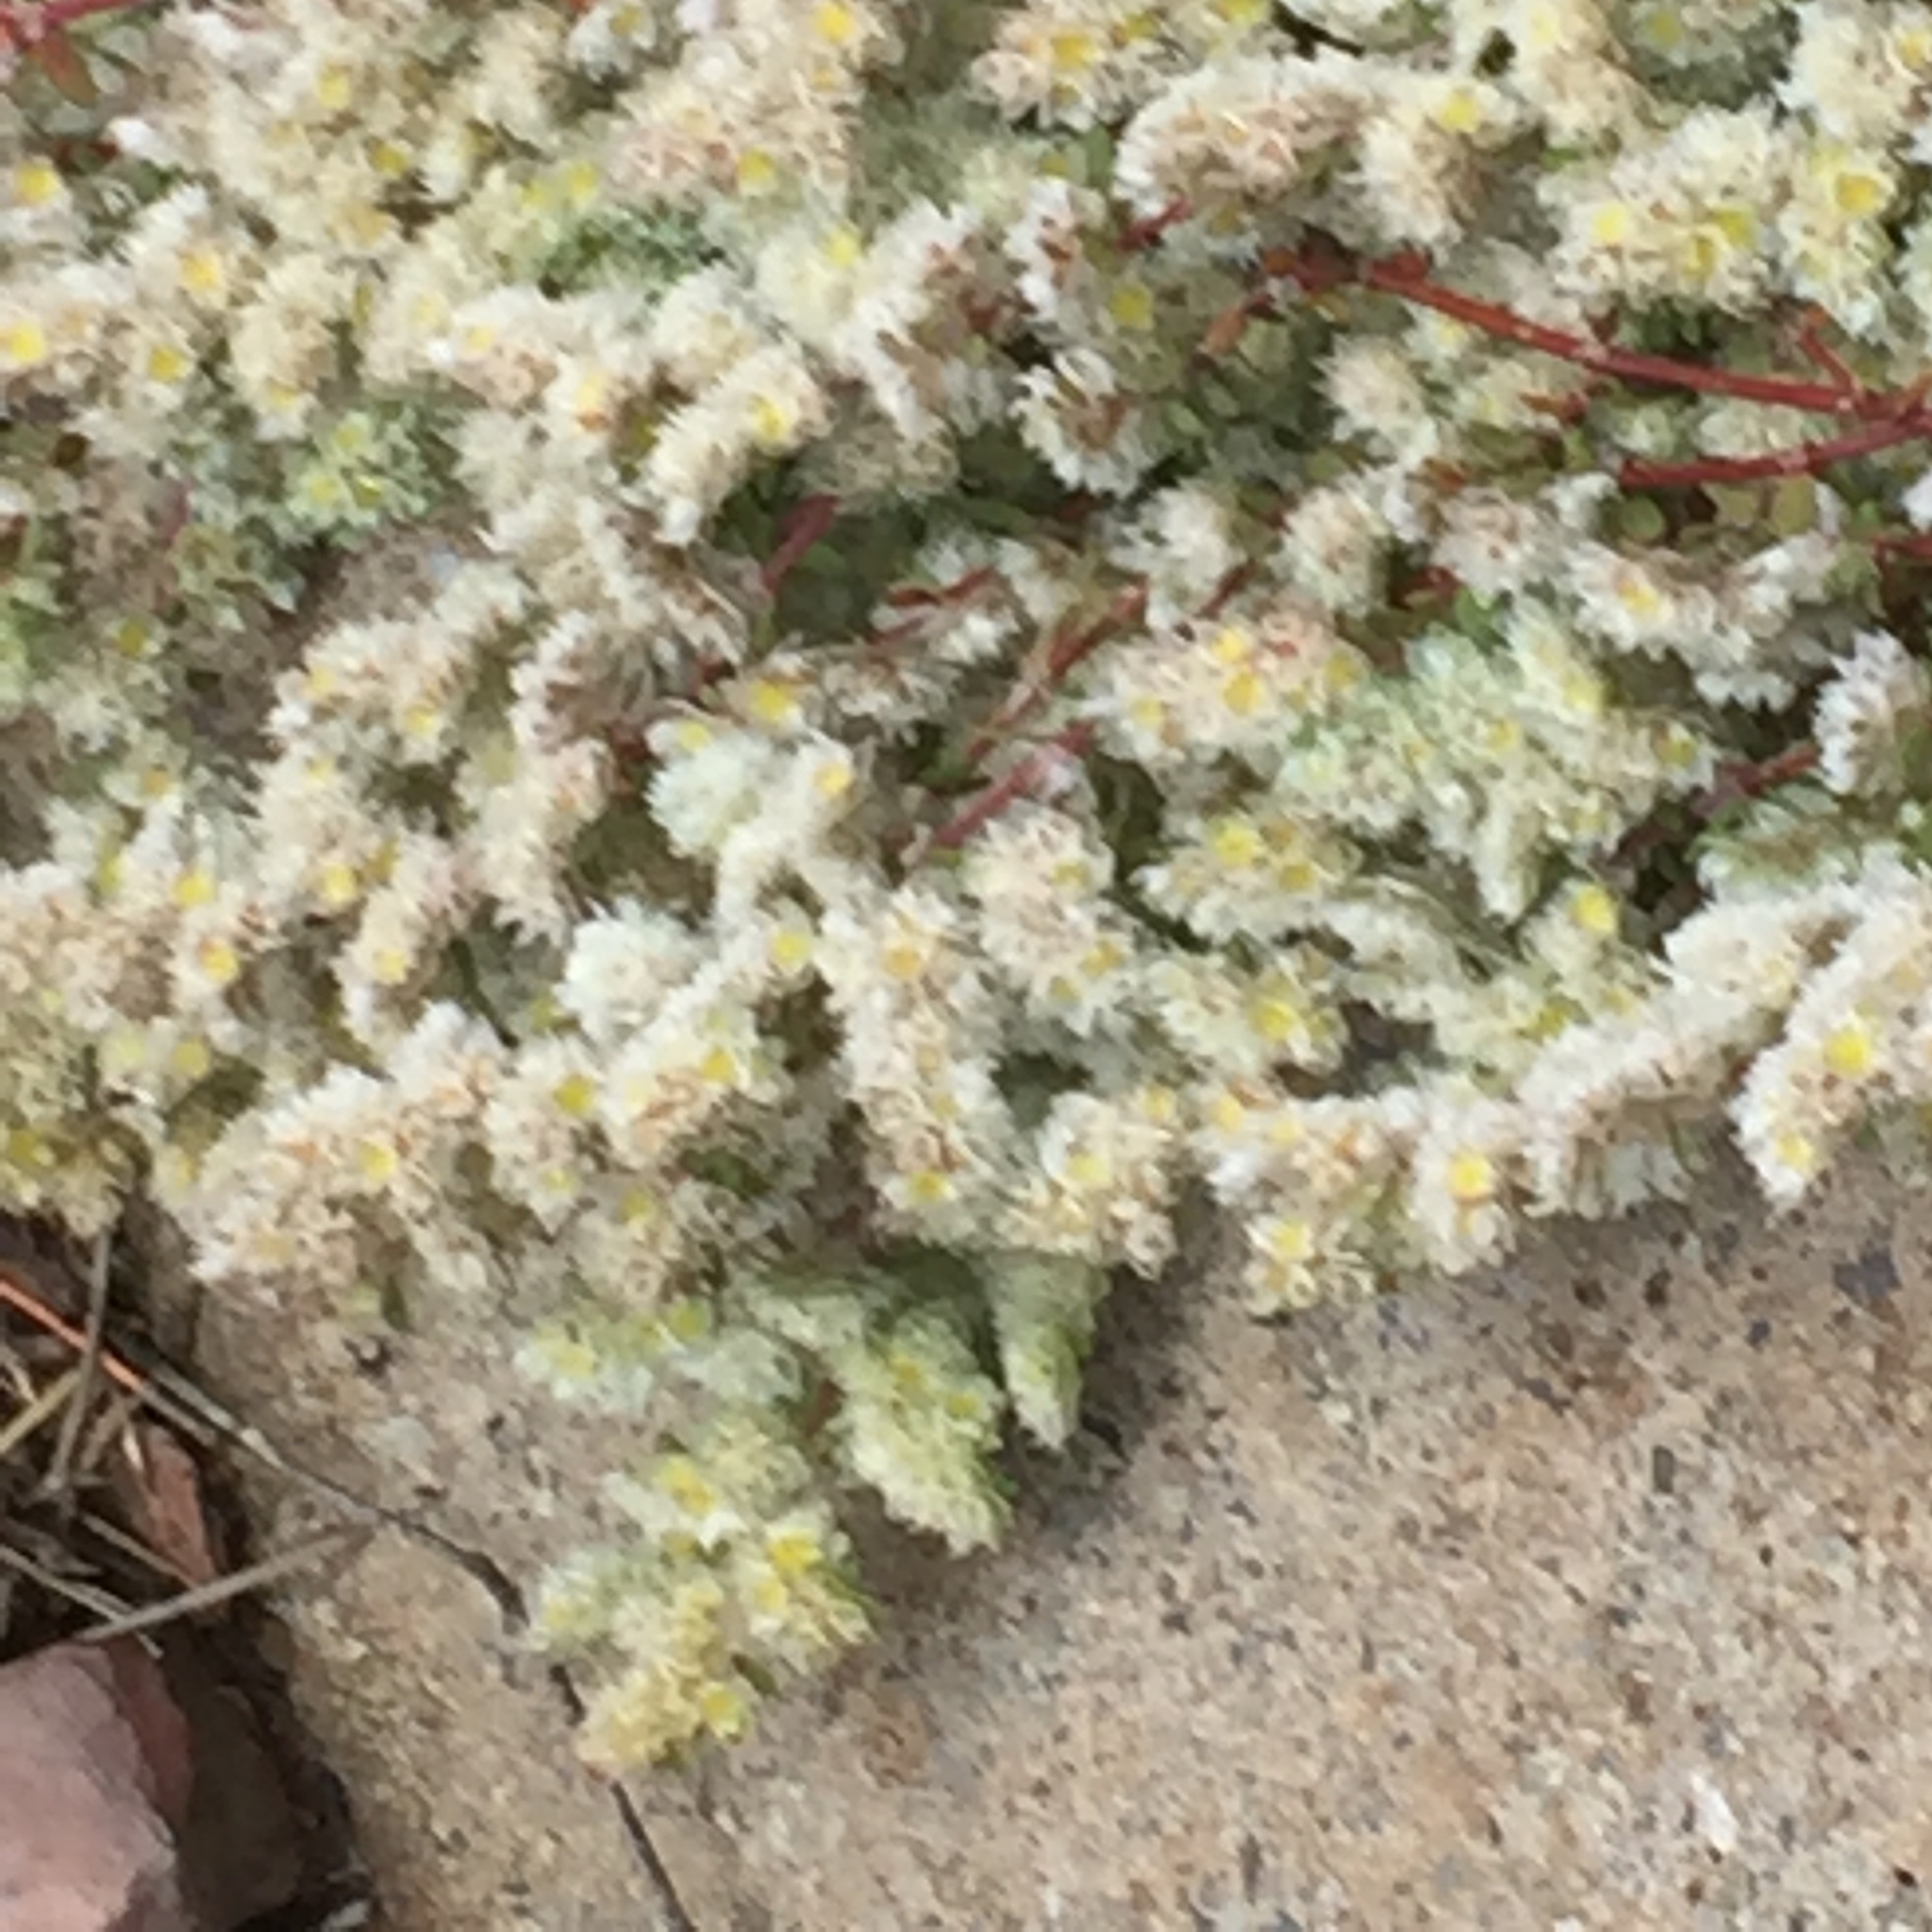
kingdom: Plantae
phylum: Tracheophyta
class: Magnoliopsida
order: Caryophyllales
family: Caryophyllaceae
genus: Paronychia
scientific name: Paronychia argentea
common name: Silver nailroot
